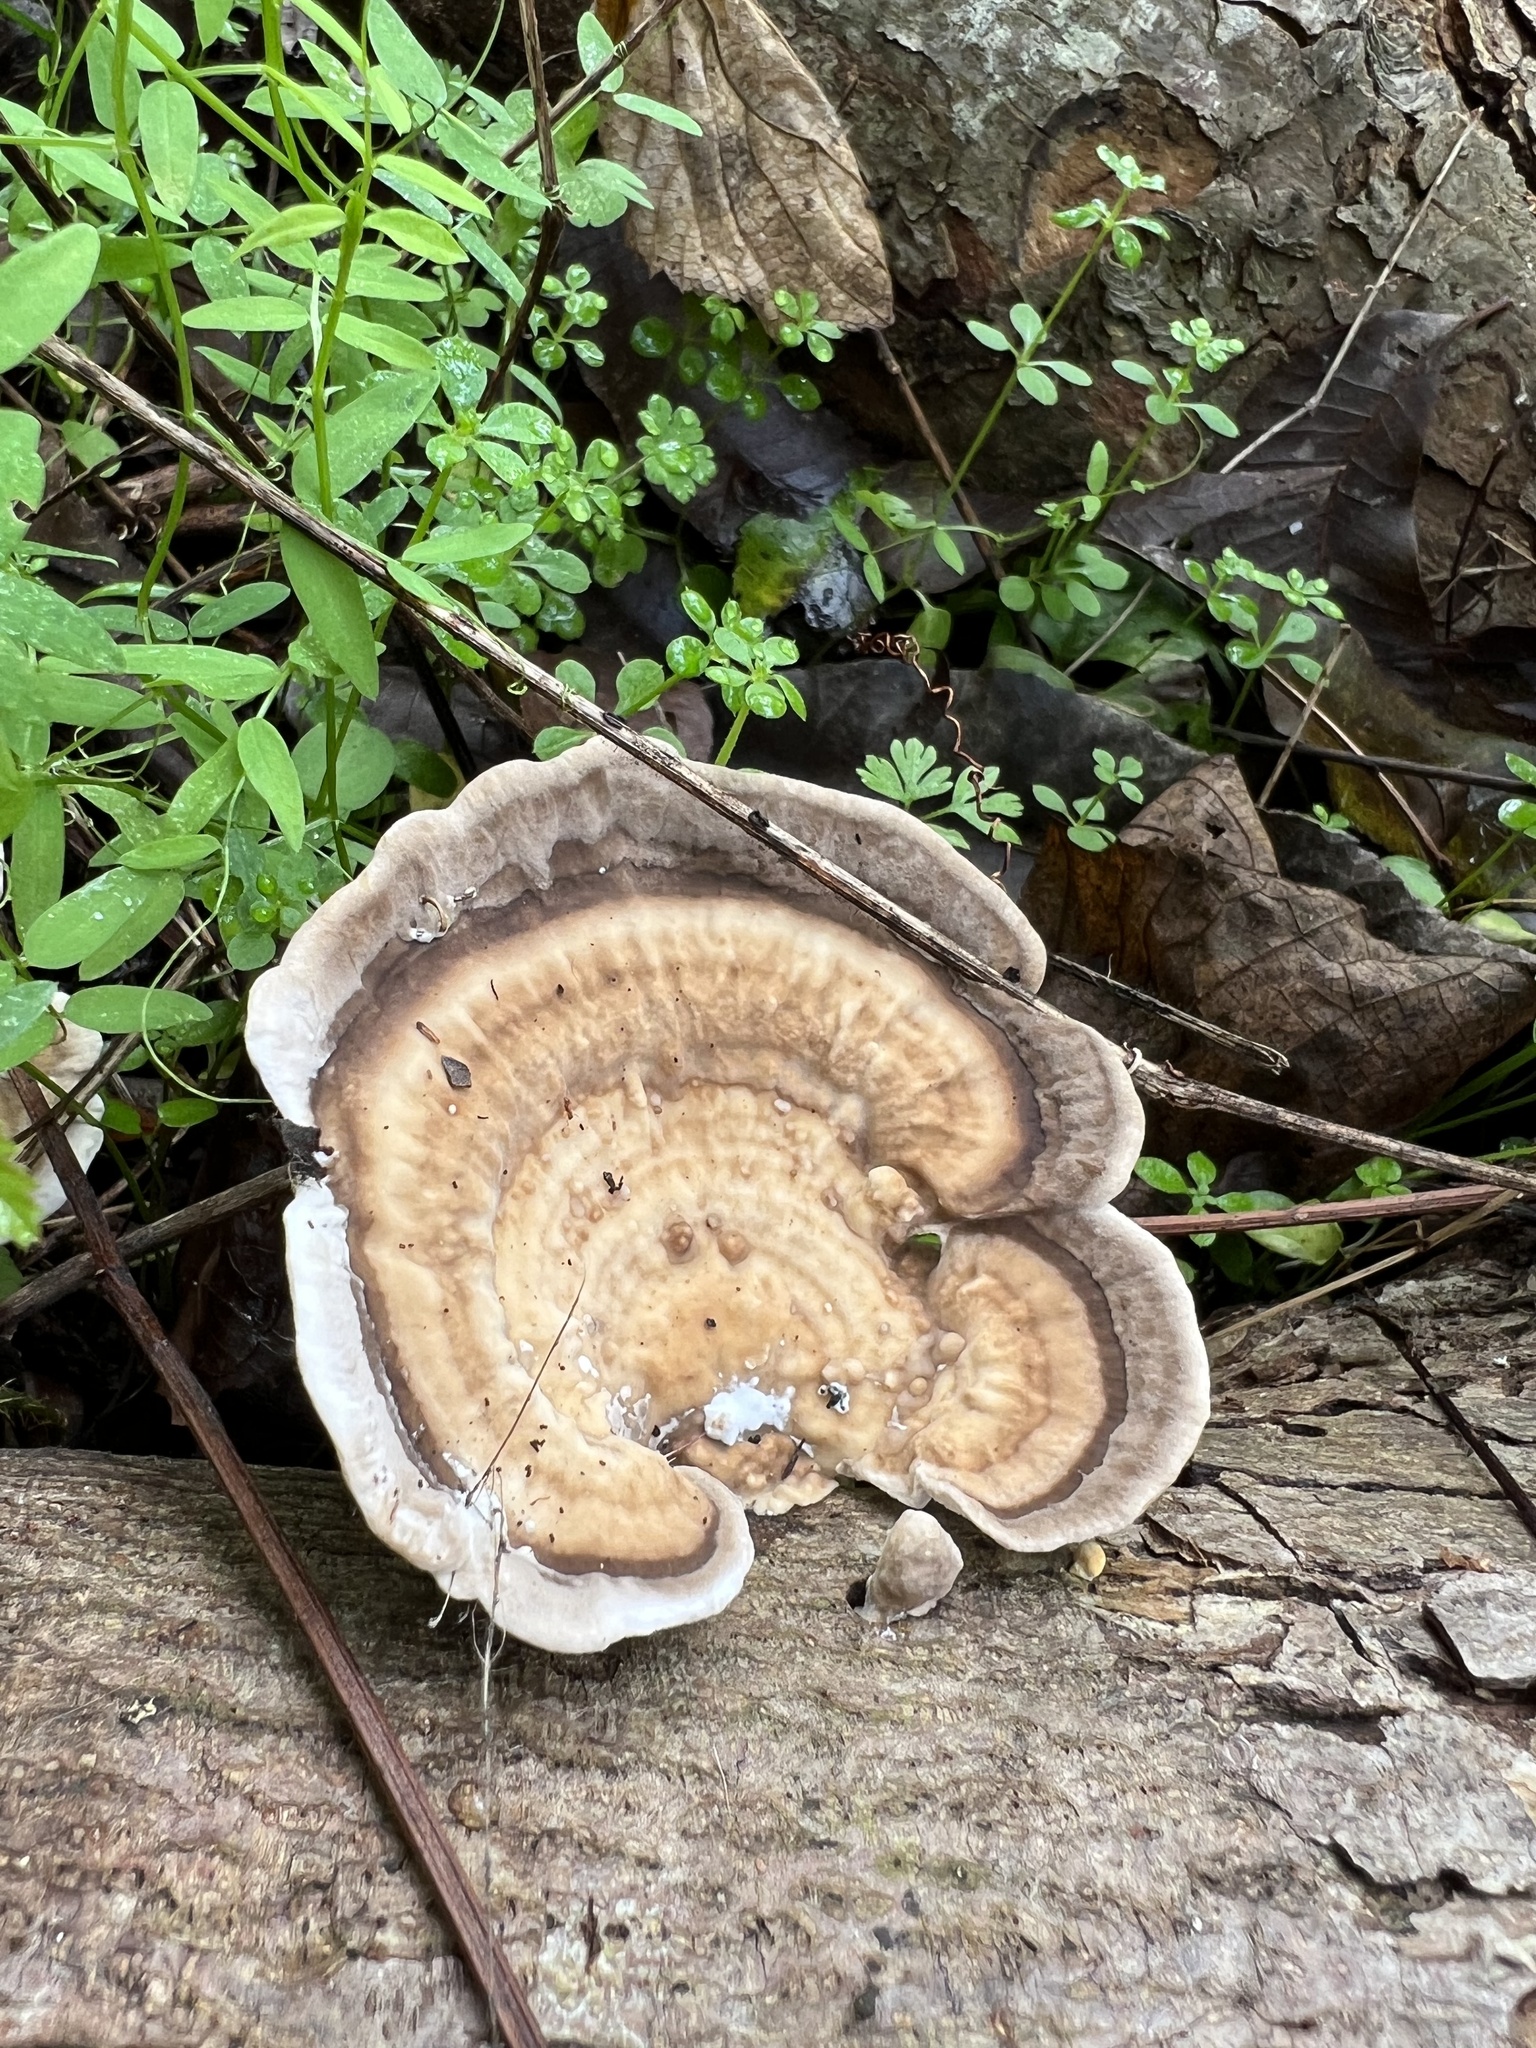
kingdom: Fungi
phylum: Basidiomycota
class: Agaricomycetes
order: Polyporales
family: Polyporaceae
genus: Trametes
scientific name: Trametes lactinea
